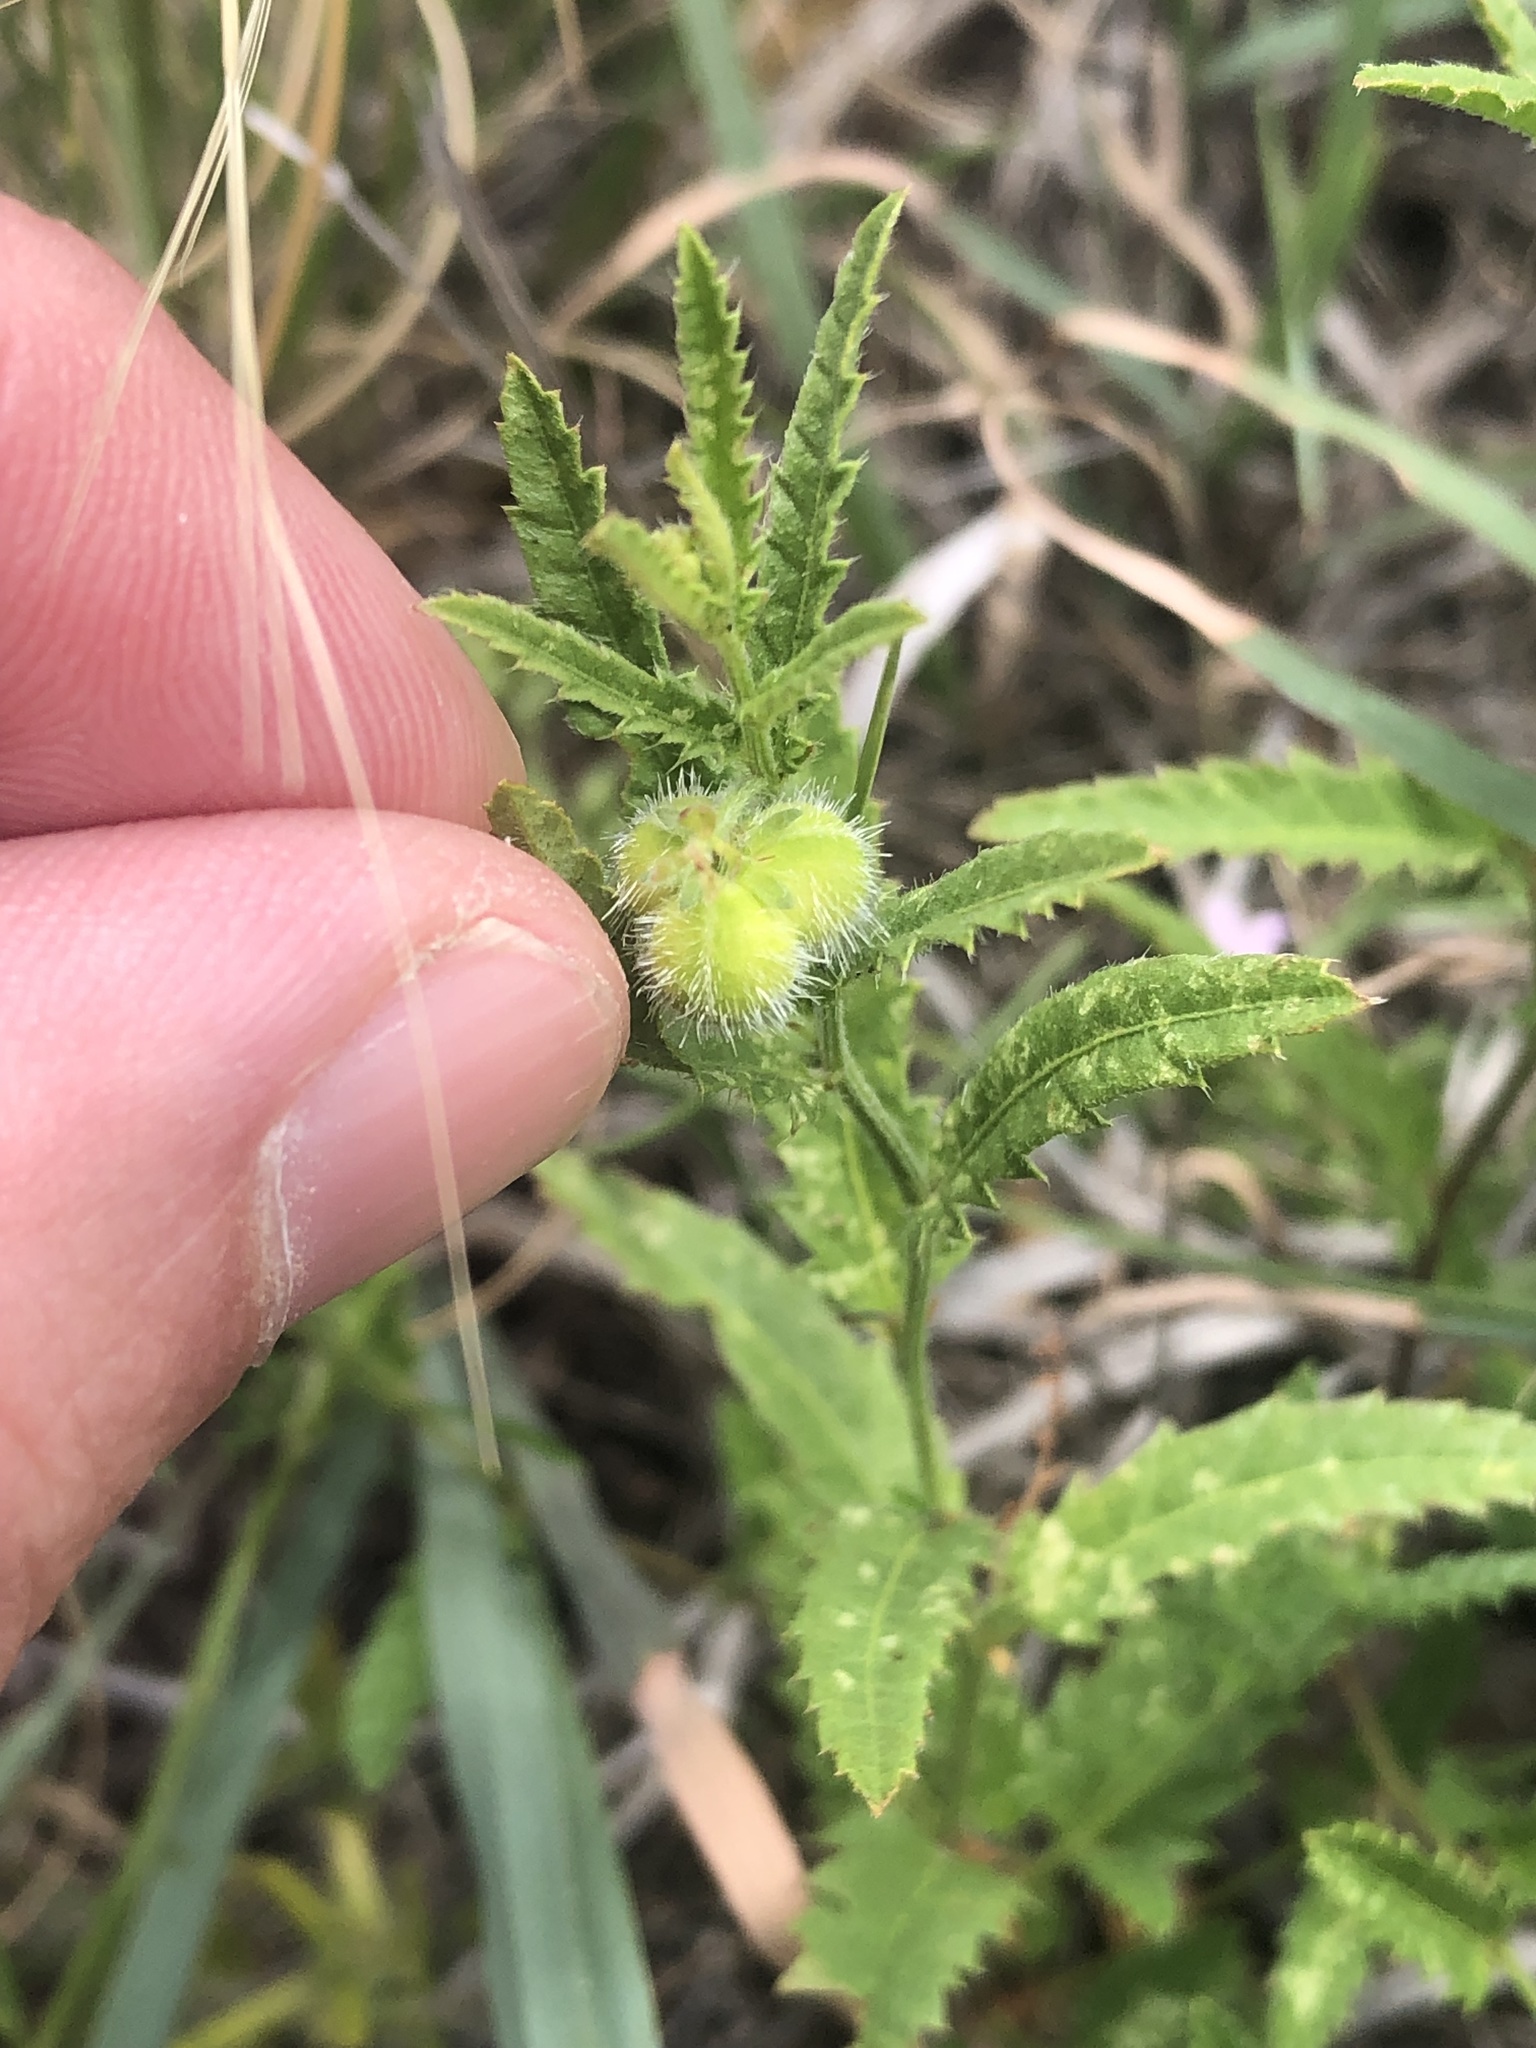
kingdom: Plantae
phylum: Tracheophyta
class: Magnoliopsida
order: Malpighiales
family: Euphorbiaceae
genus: Tragia
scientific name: Tragia ramosa
